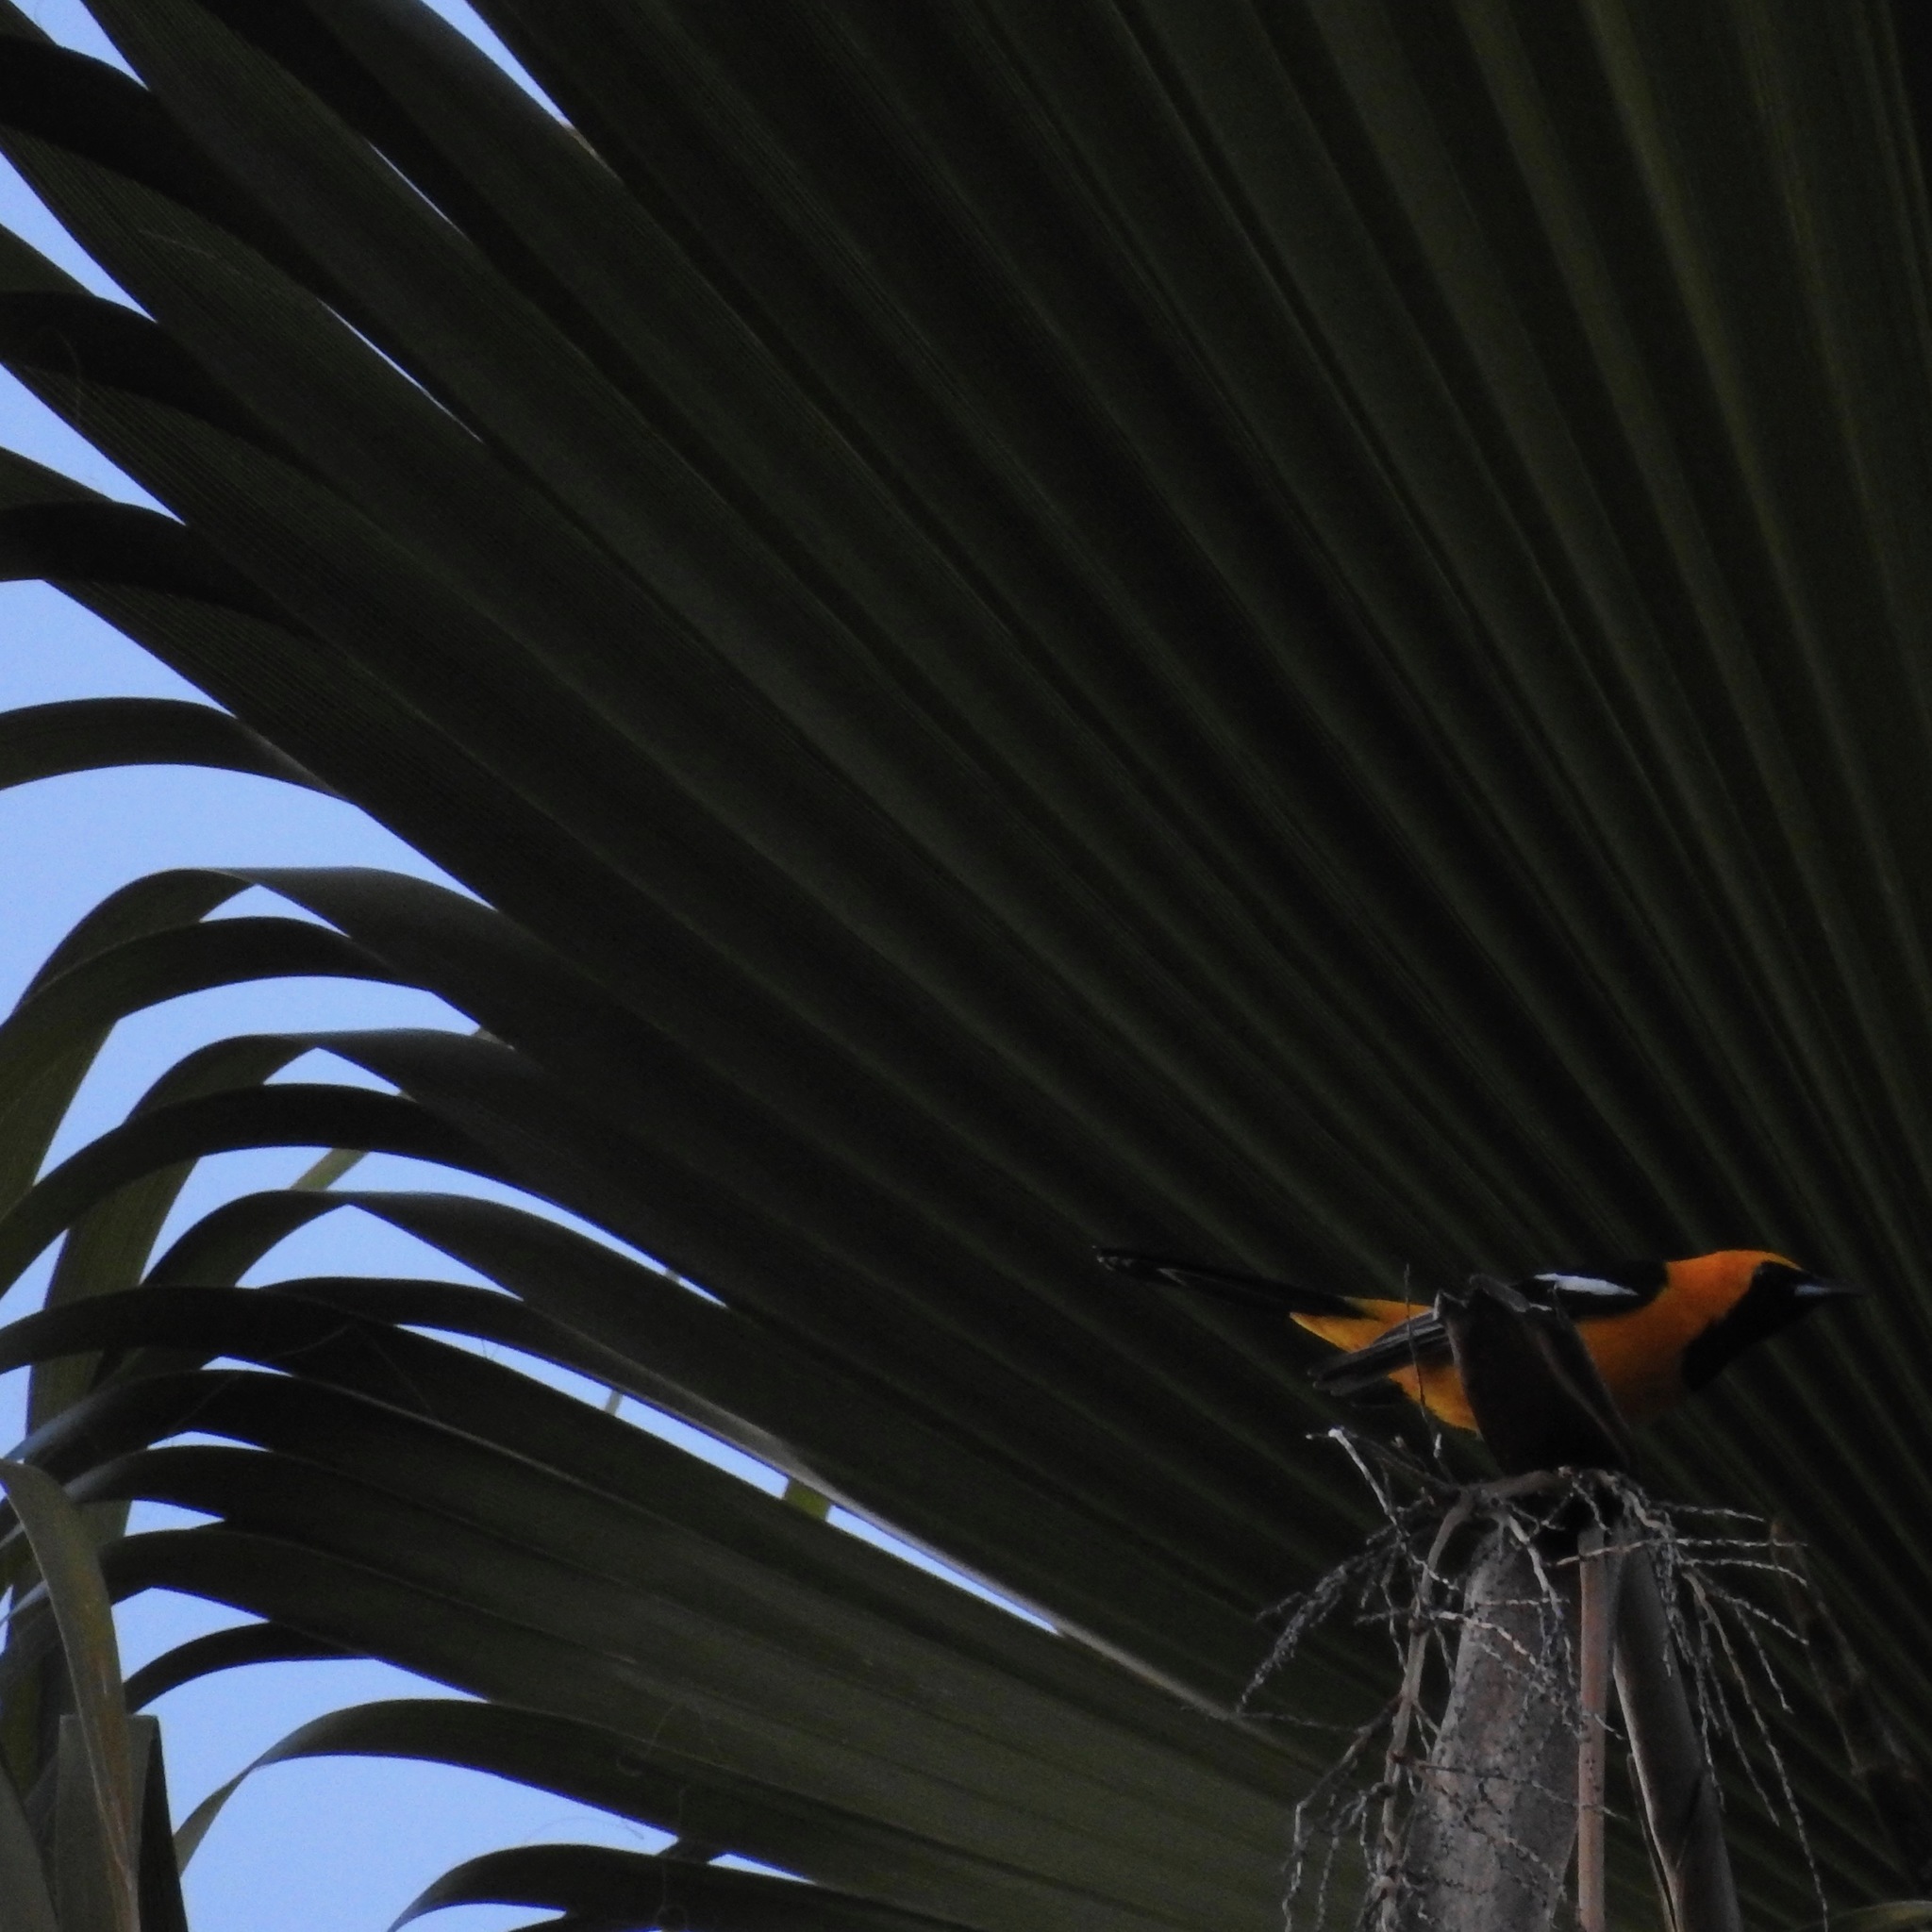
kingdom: Animalia
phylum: Chordata
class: Aves
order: Passeriformes
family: Icteridae
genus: Icterus
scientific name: Icterus cucullatus
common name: Hooded oriole
